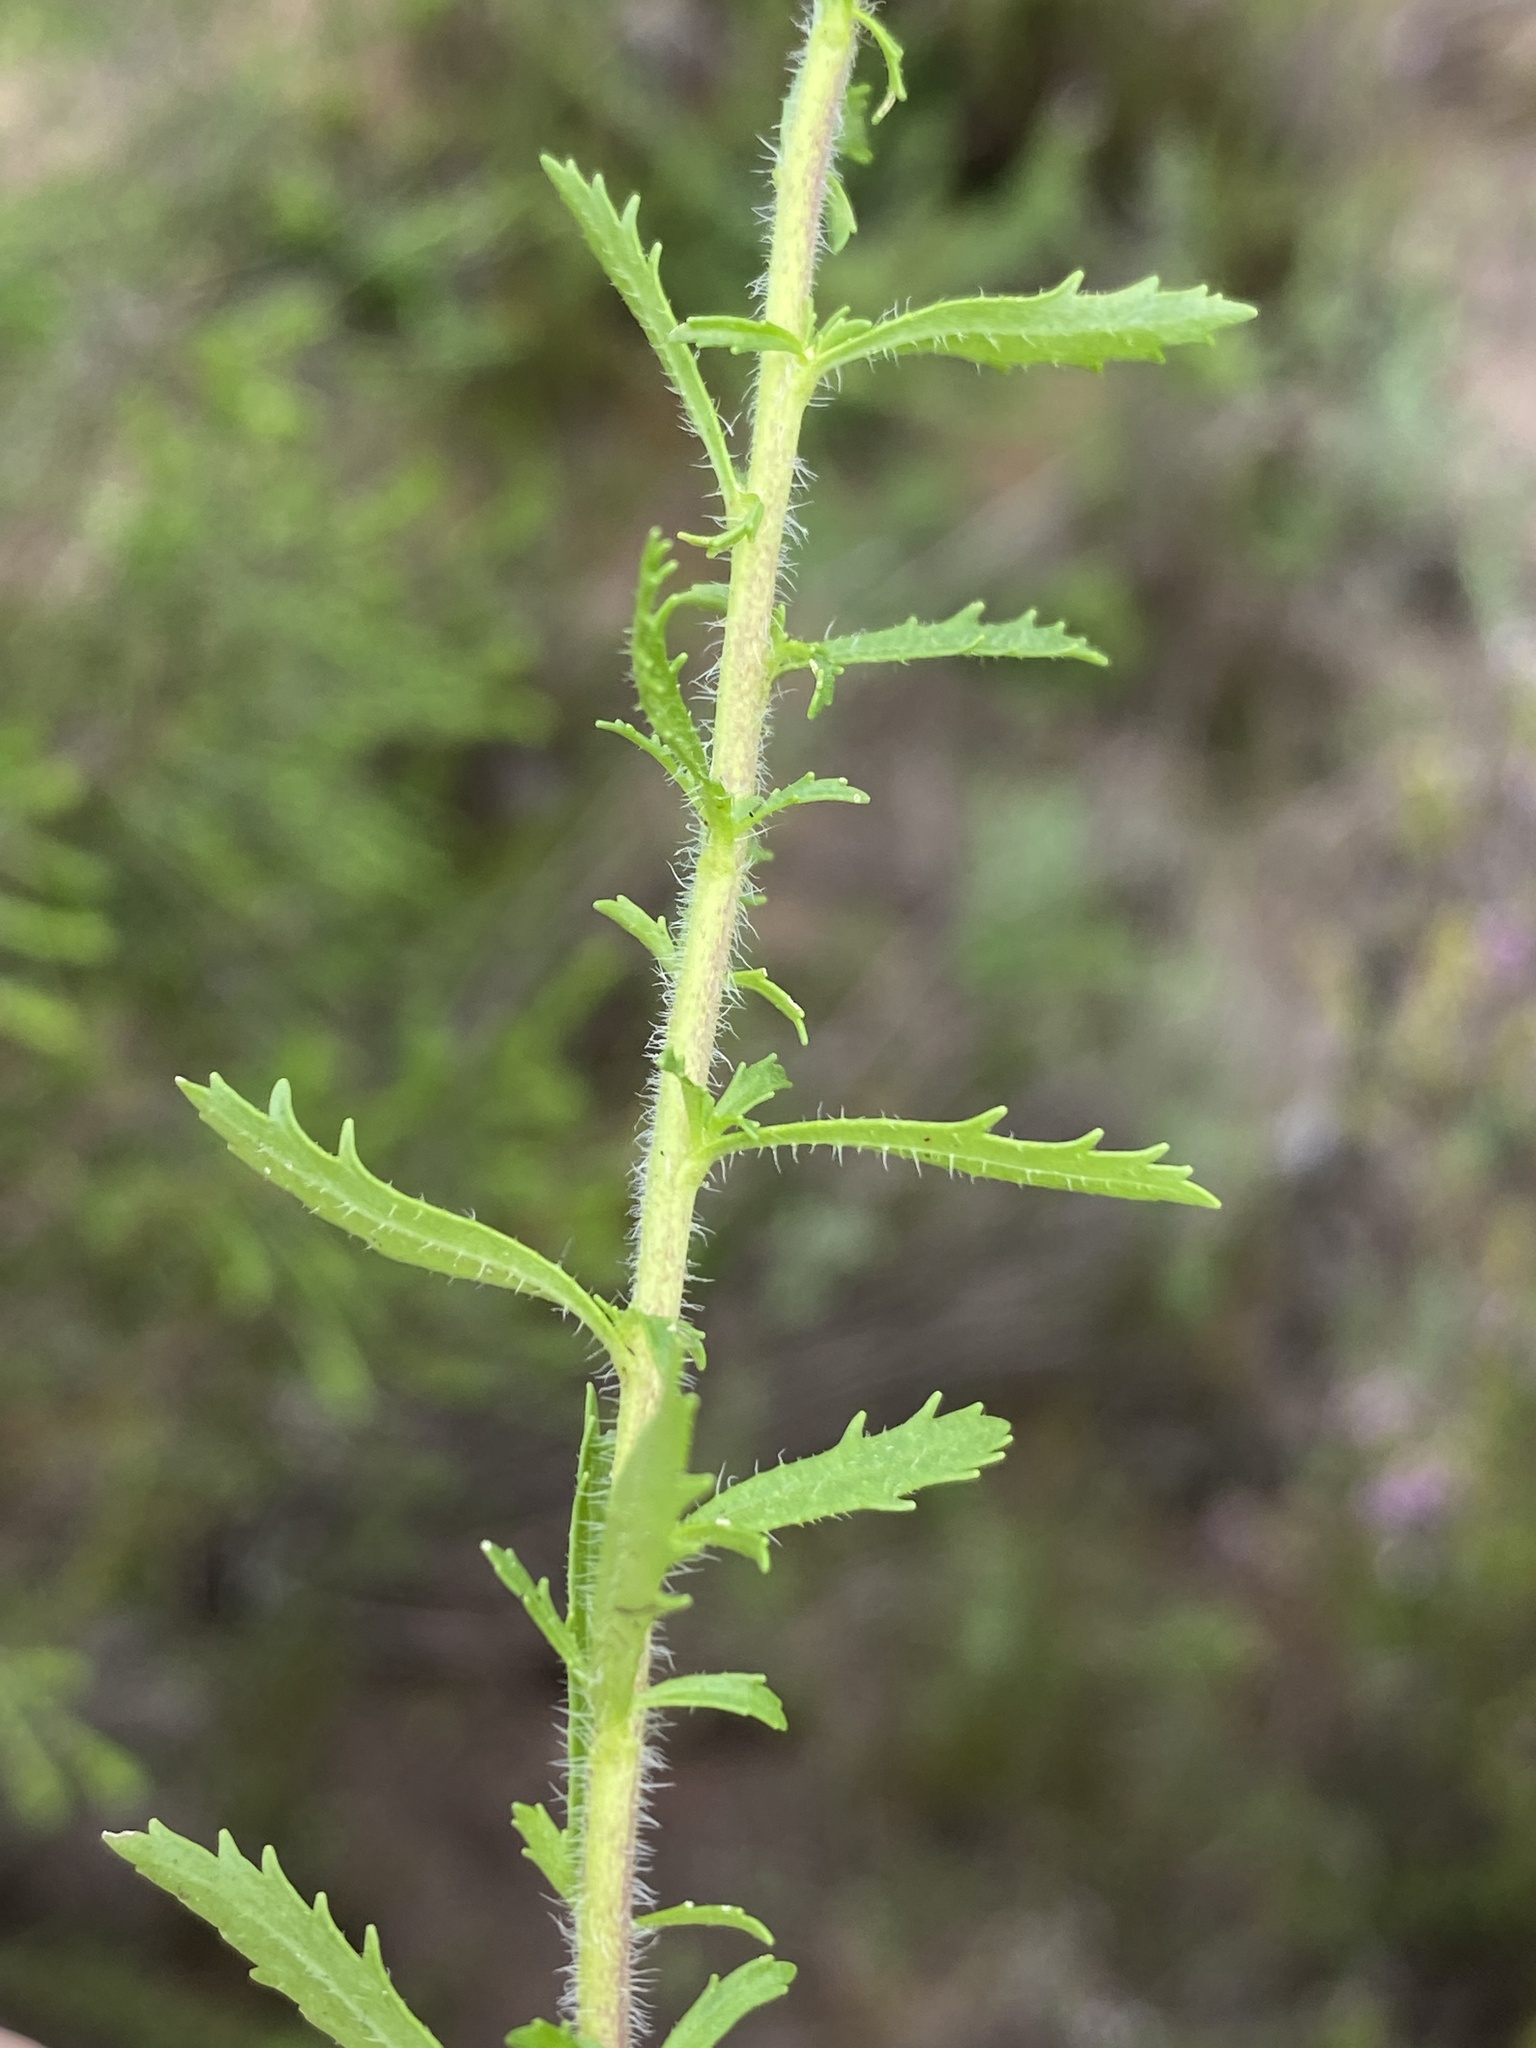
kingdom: Plantae
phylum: Tracheophyta
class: Magnoliopsida
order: Lamiales
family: Scrophulariaceae
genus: Dischisma
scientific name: Dischisma ciliatum
